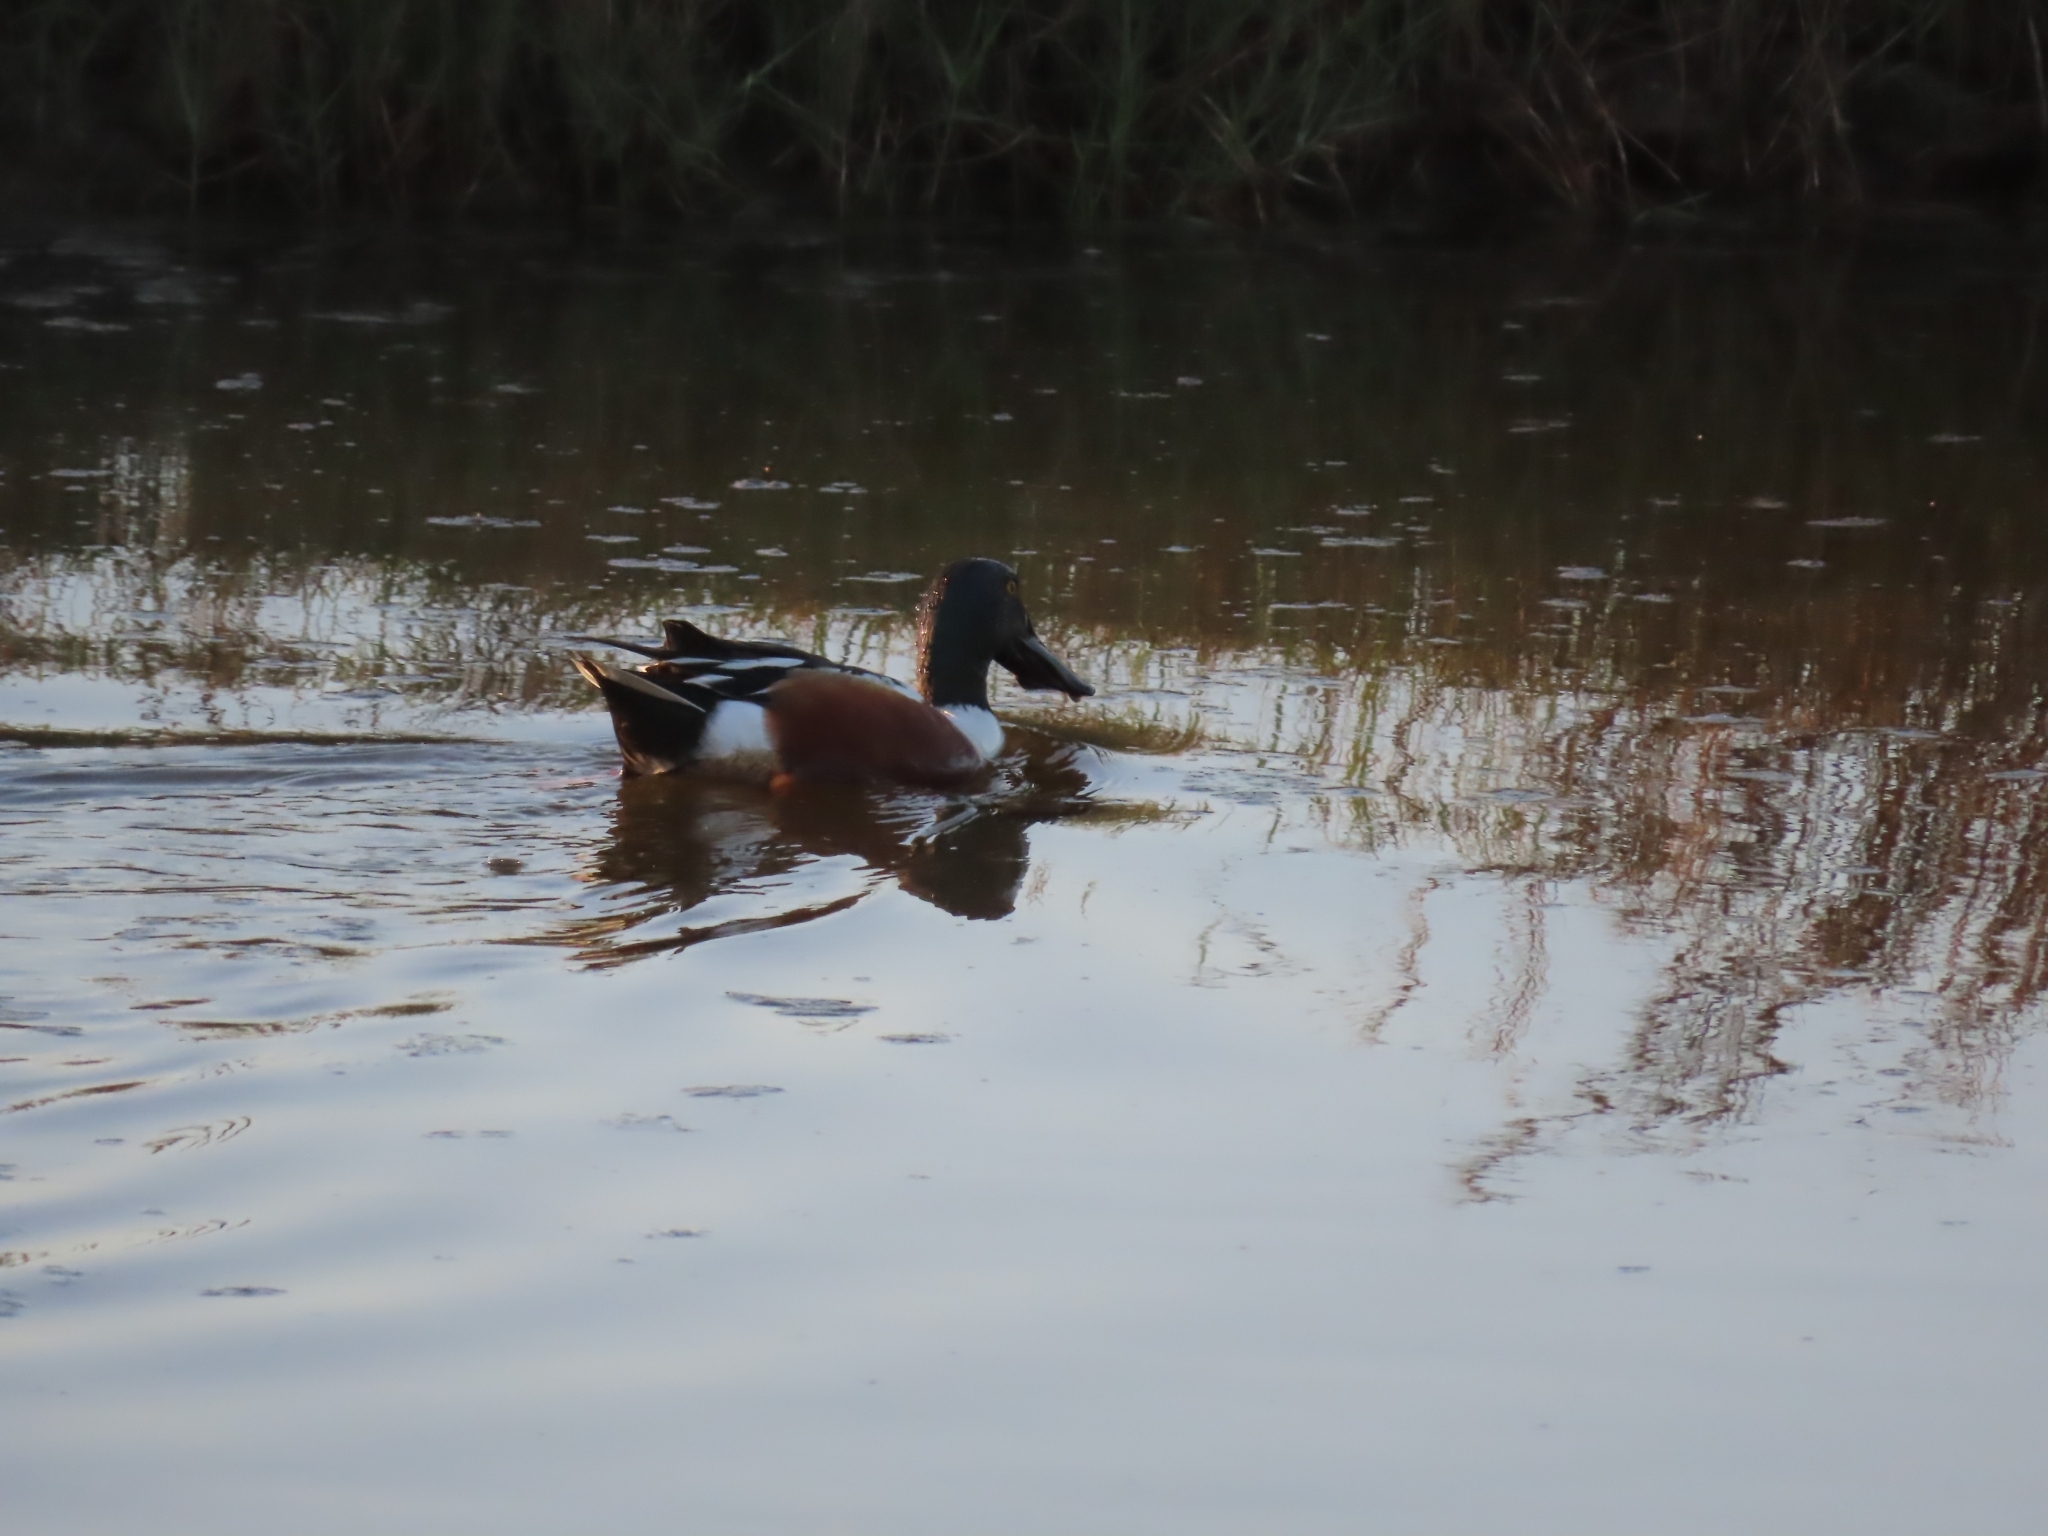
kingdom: Animalia
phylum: Chordata
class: Aves
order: Anseriformes
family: Anatidae
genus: Spatula
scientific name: Spatula clypeata
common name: Northern shoveler
